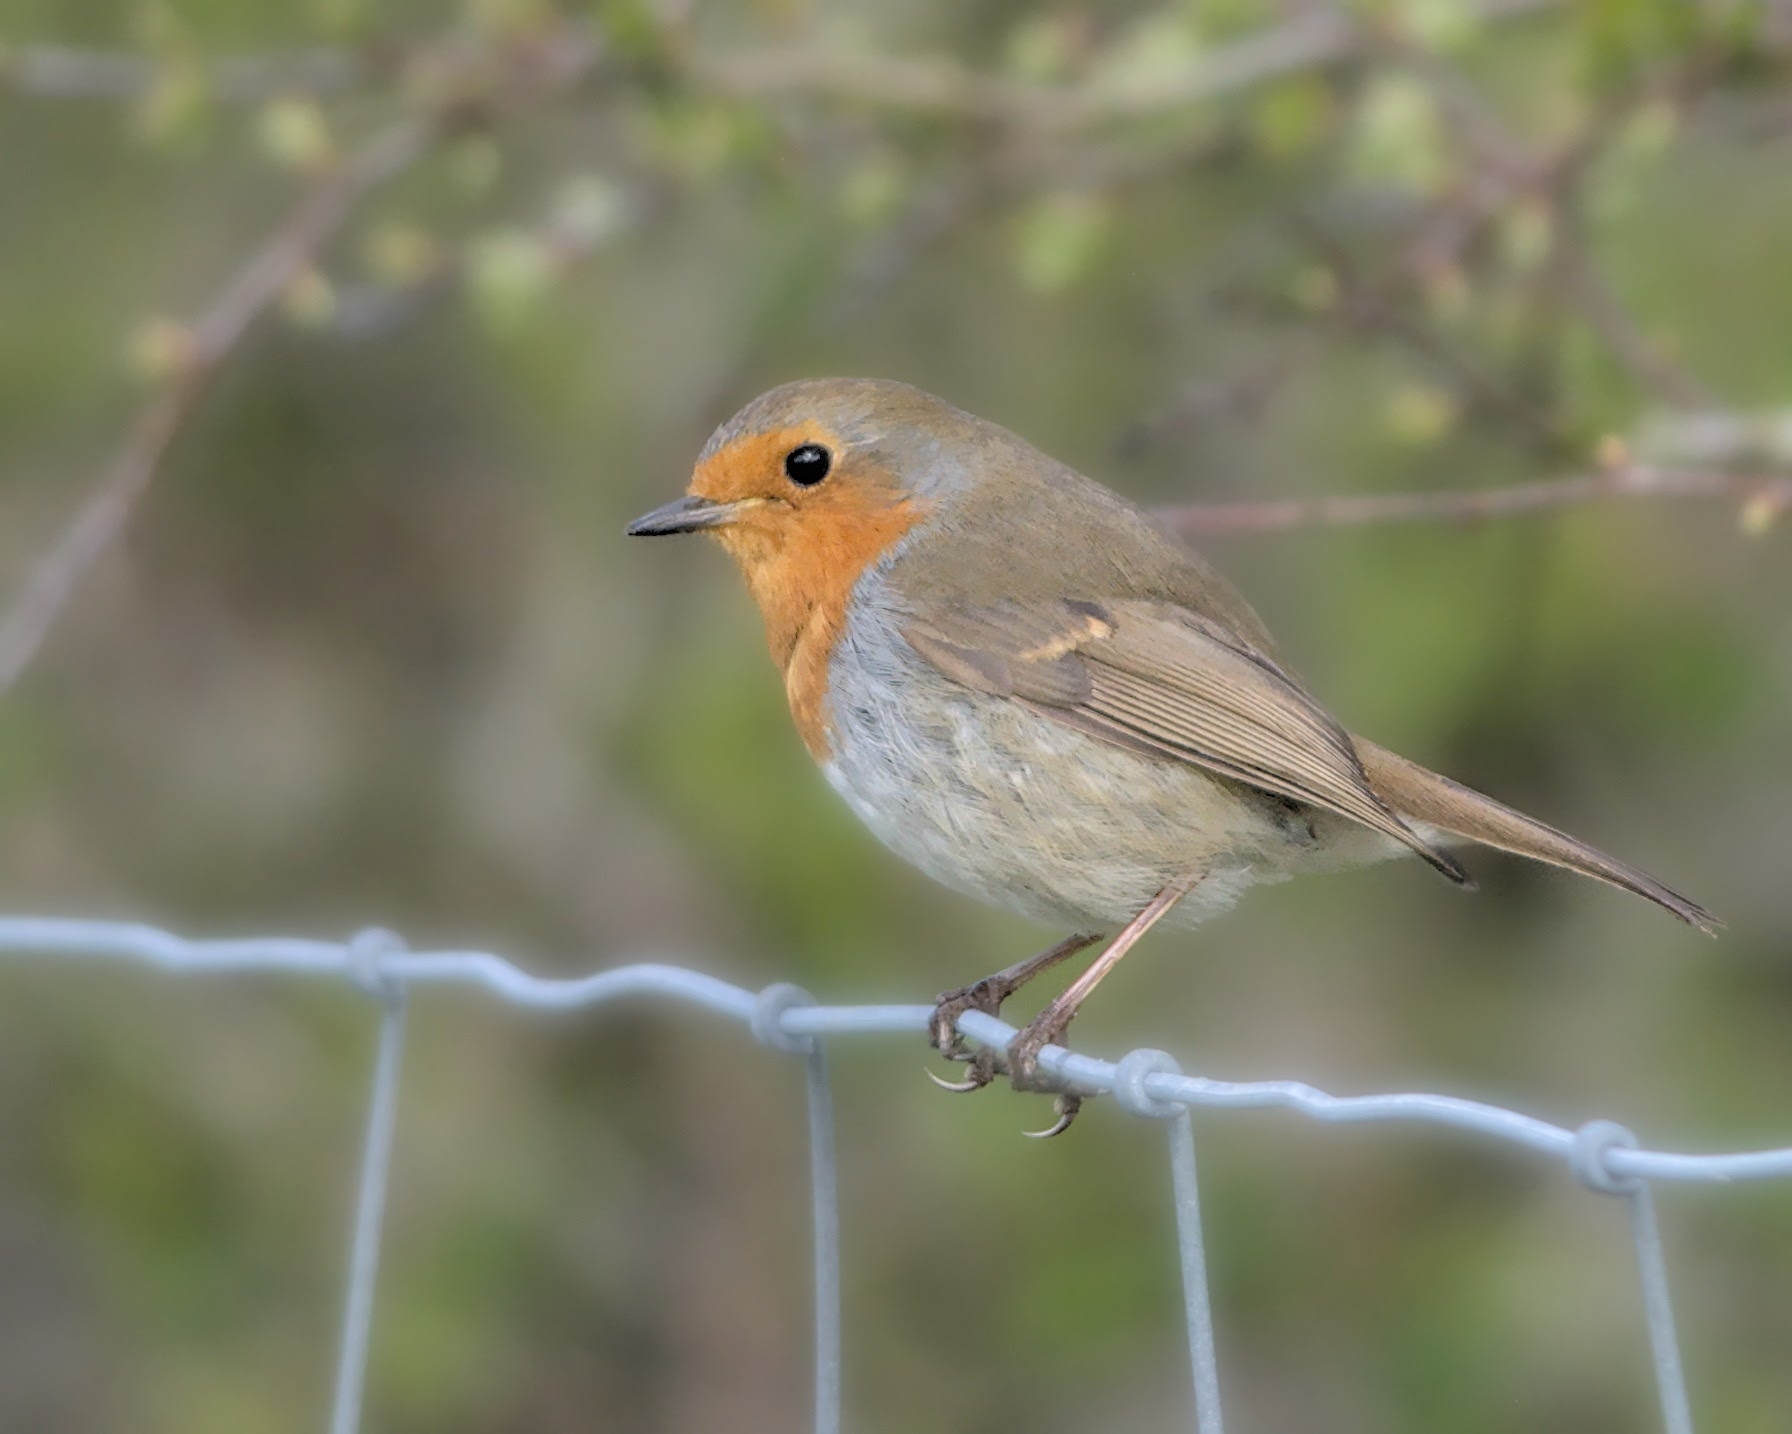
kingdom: Animalia
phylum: Chordata
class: Aves
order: Passeriformes
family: Muscicapidae
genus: Erithacus
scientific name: Erithacus rubecula
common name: European robin
